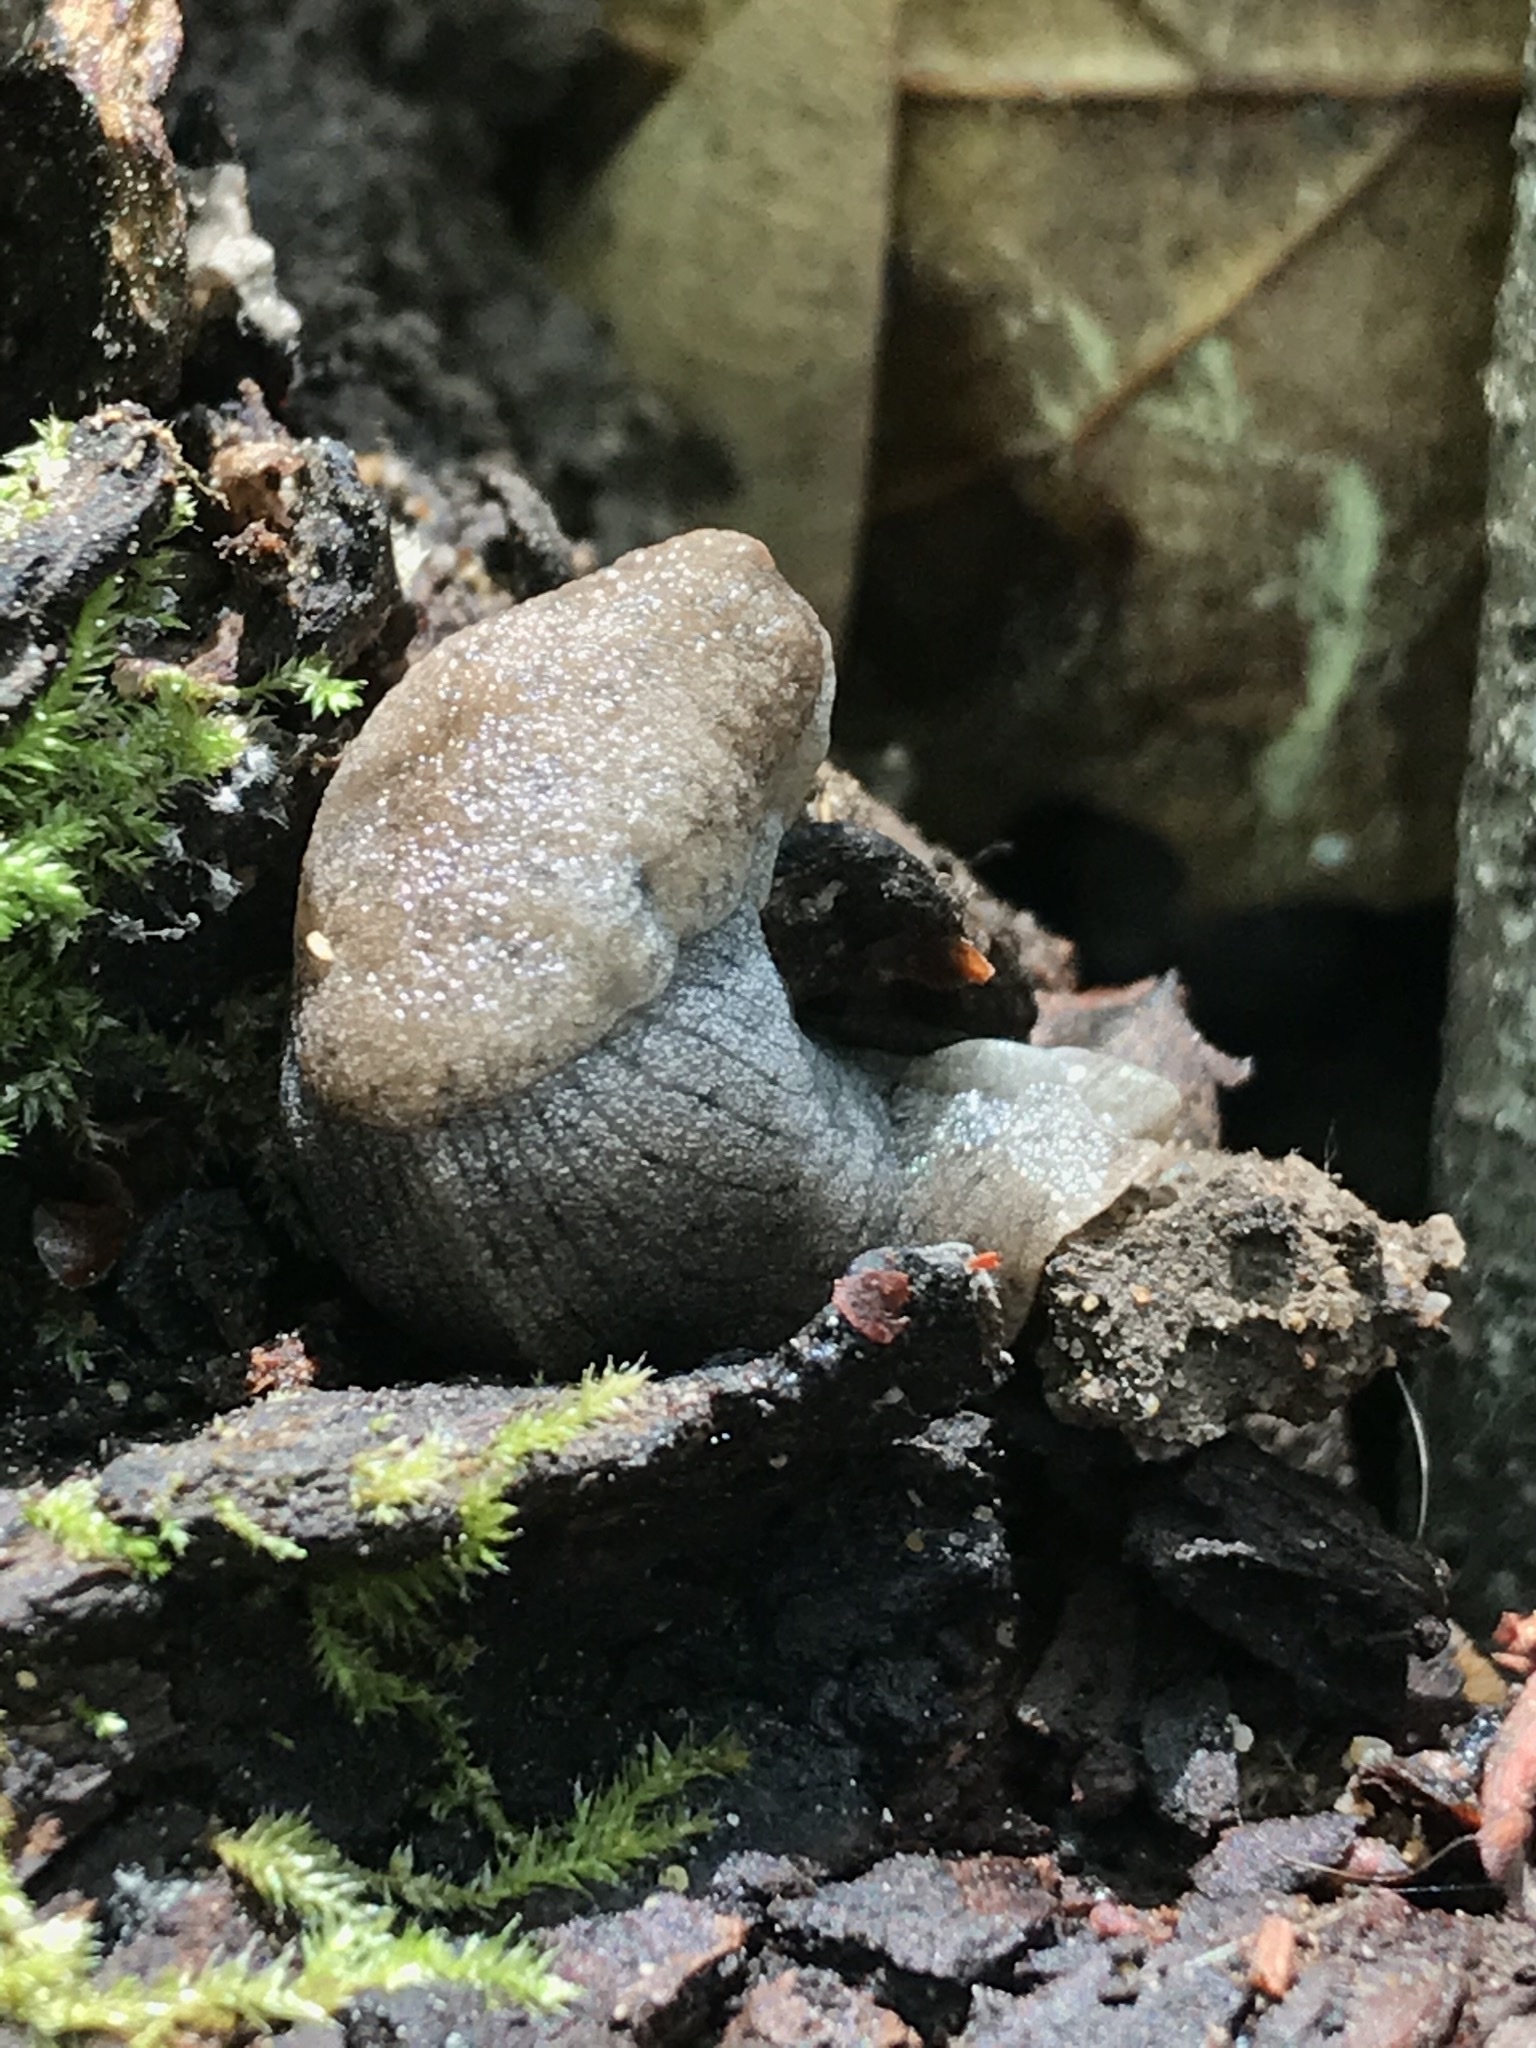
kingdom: Animalia
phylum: Mollusca
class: Gastropoda
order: Stylommatophora
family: Ariolimacidae
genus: Hesperarion
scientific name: Hesperarion niger
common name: Black western slug
